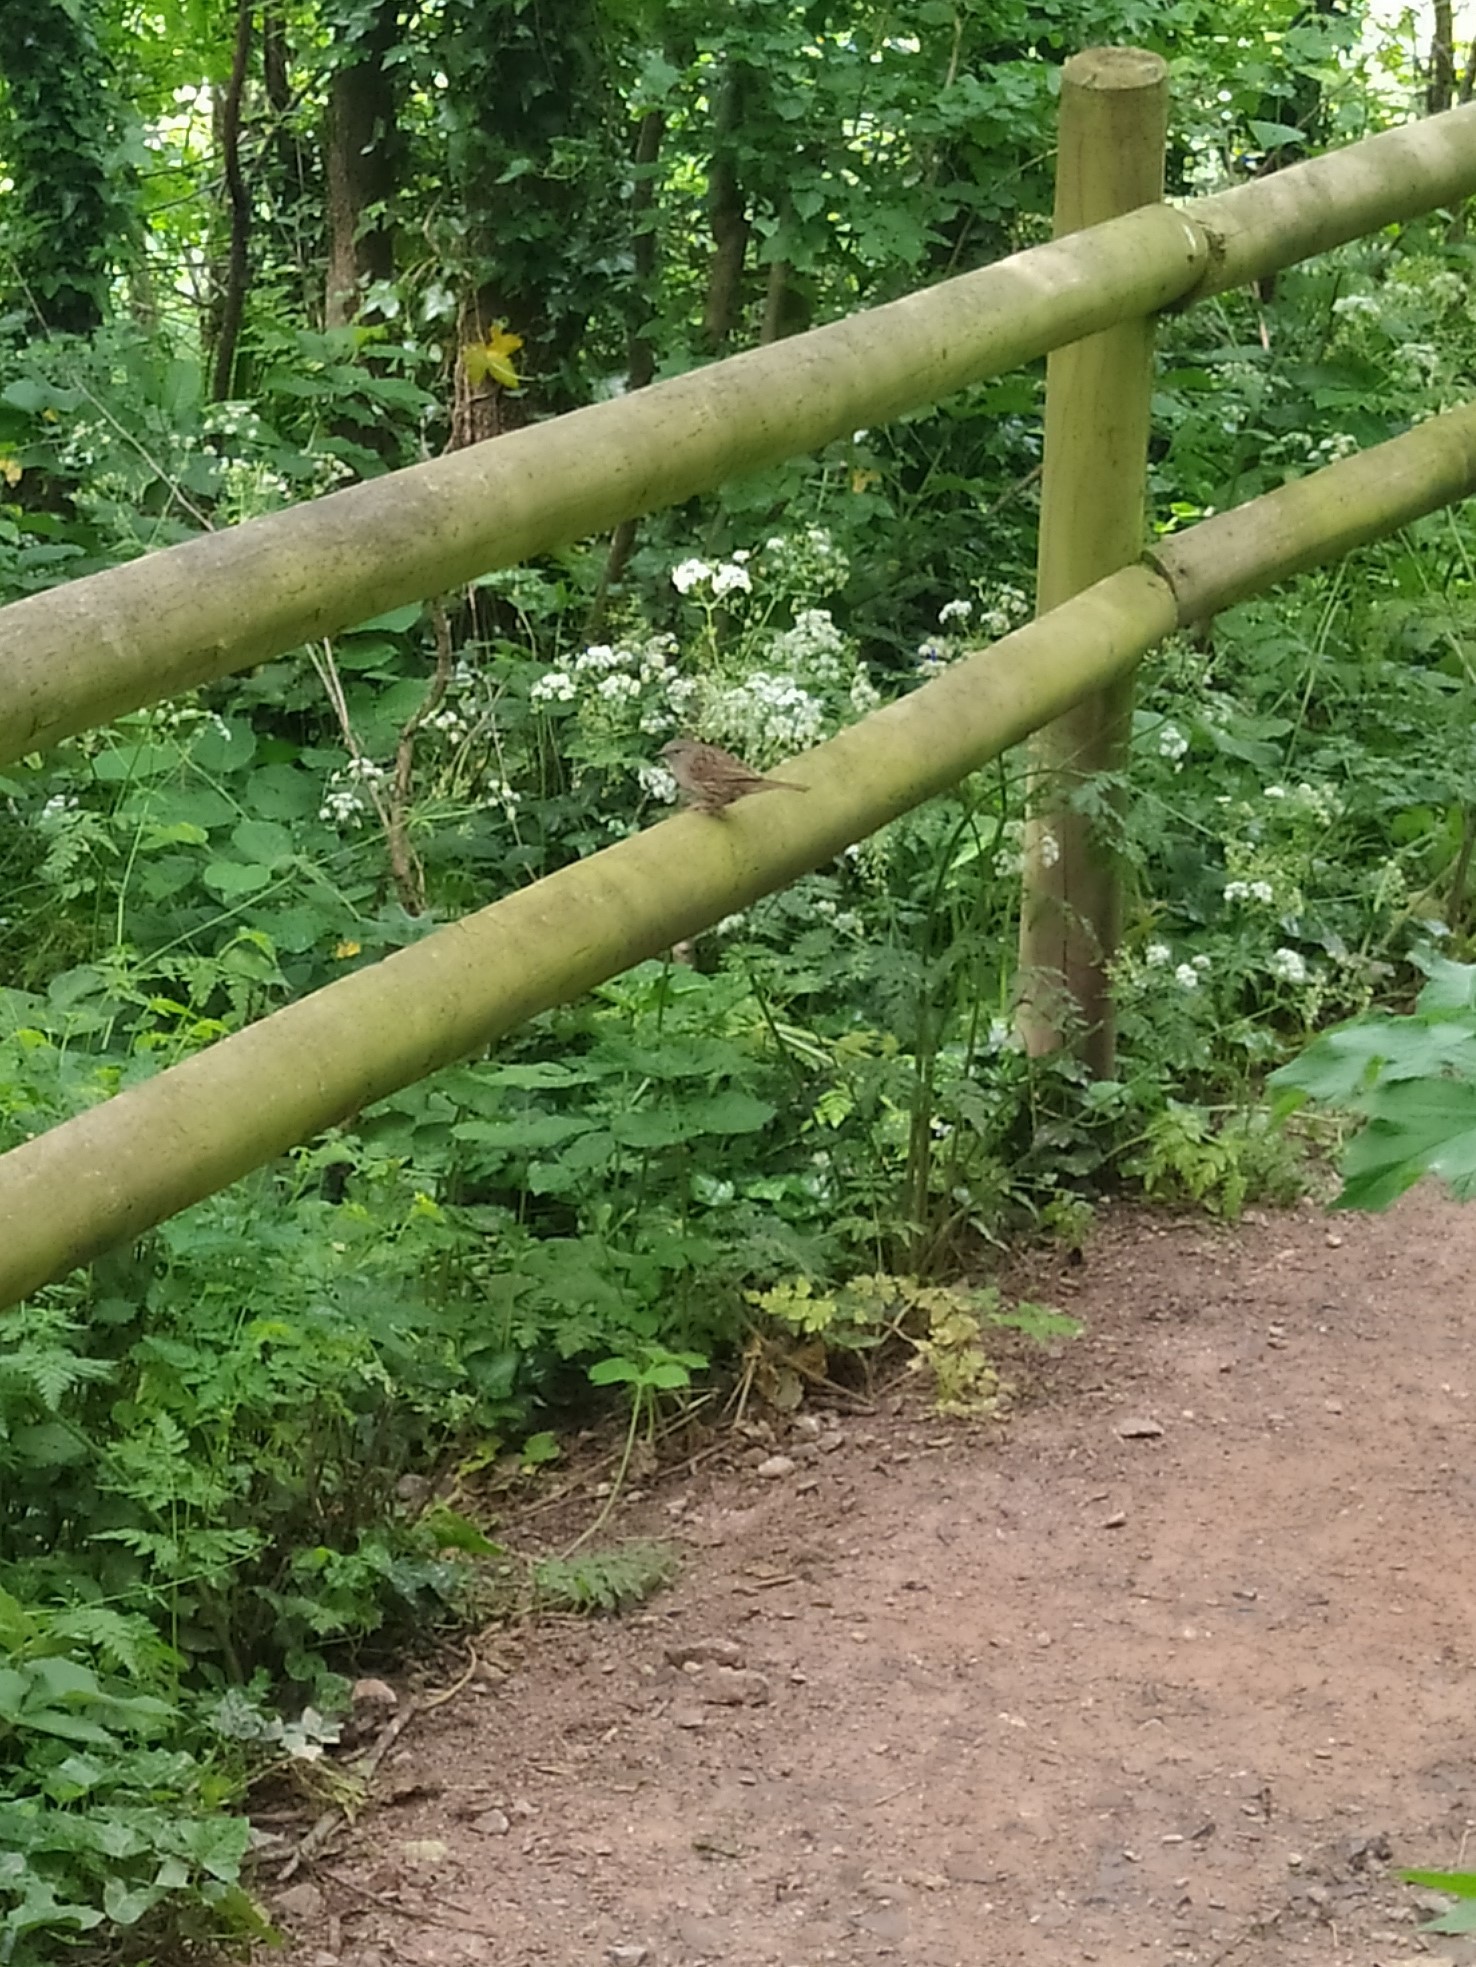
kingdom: Animalia
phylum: Chordata
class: Aves
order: Passeriformes
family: Prunellidae
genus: Prunella
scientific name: Prunella modularis
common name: Dunnock
